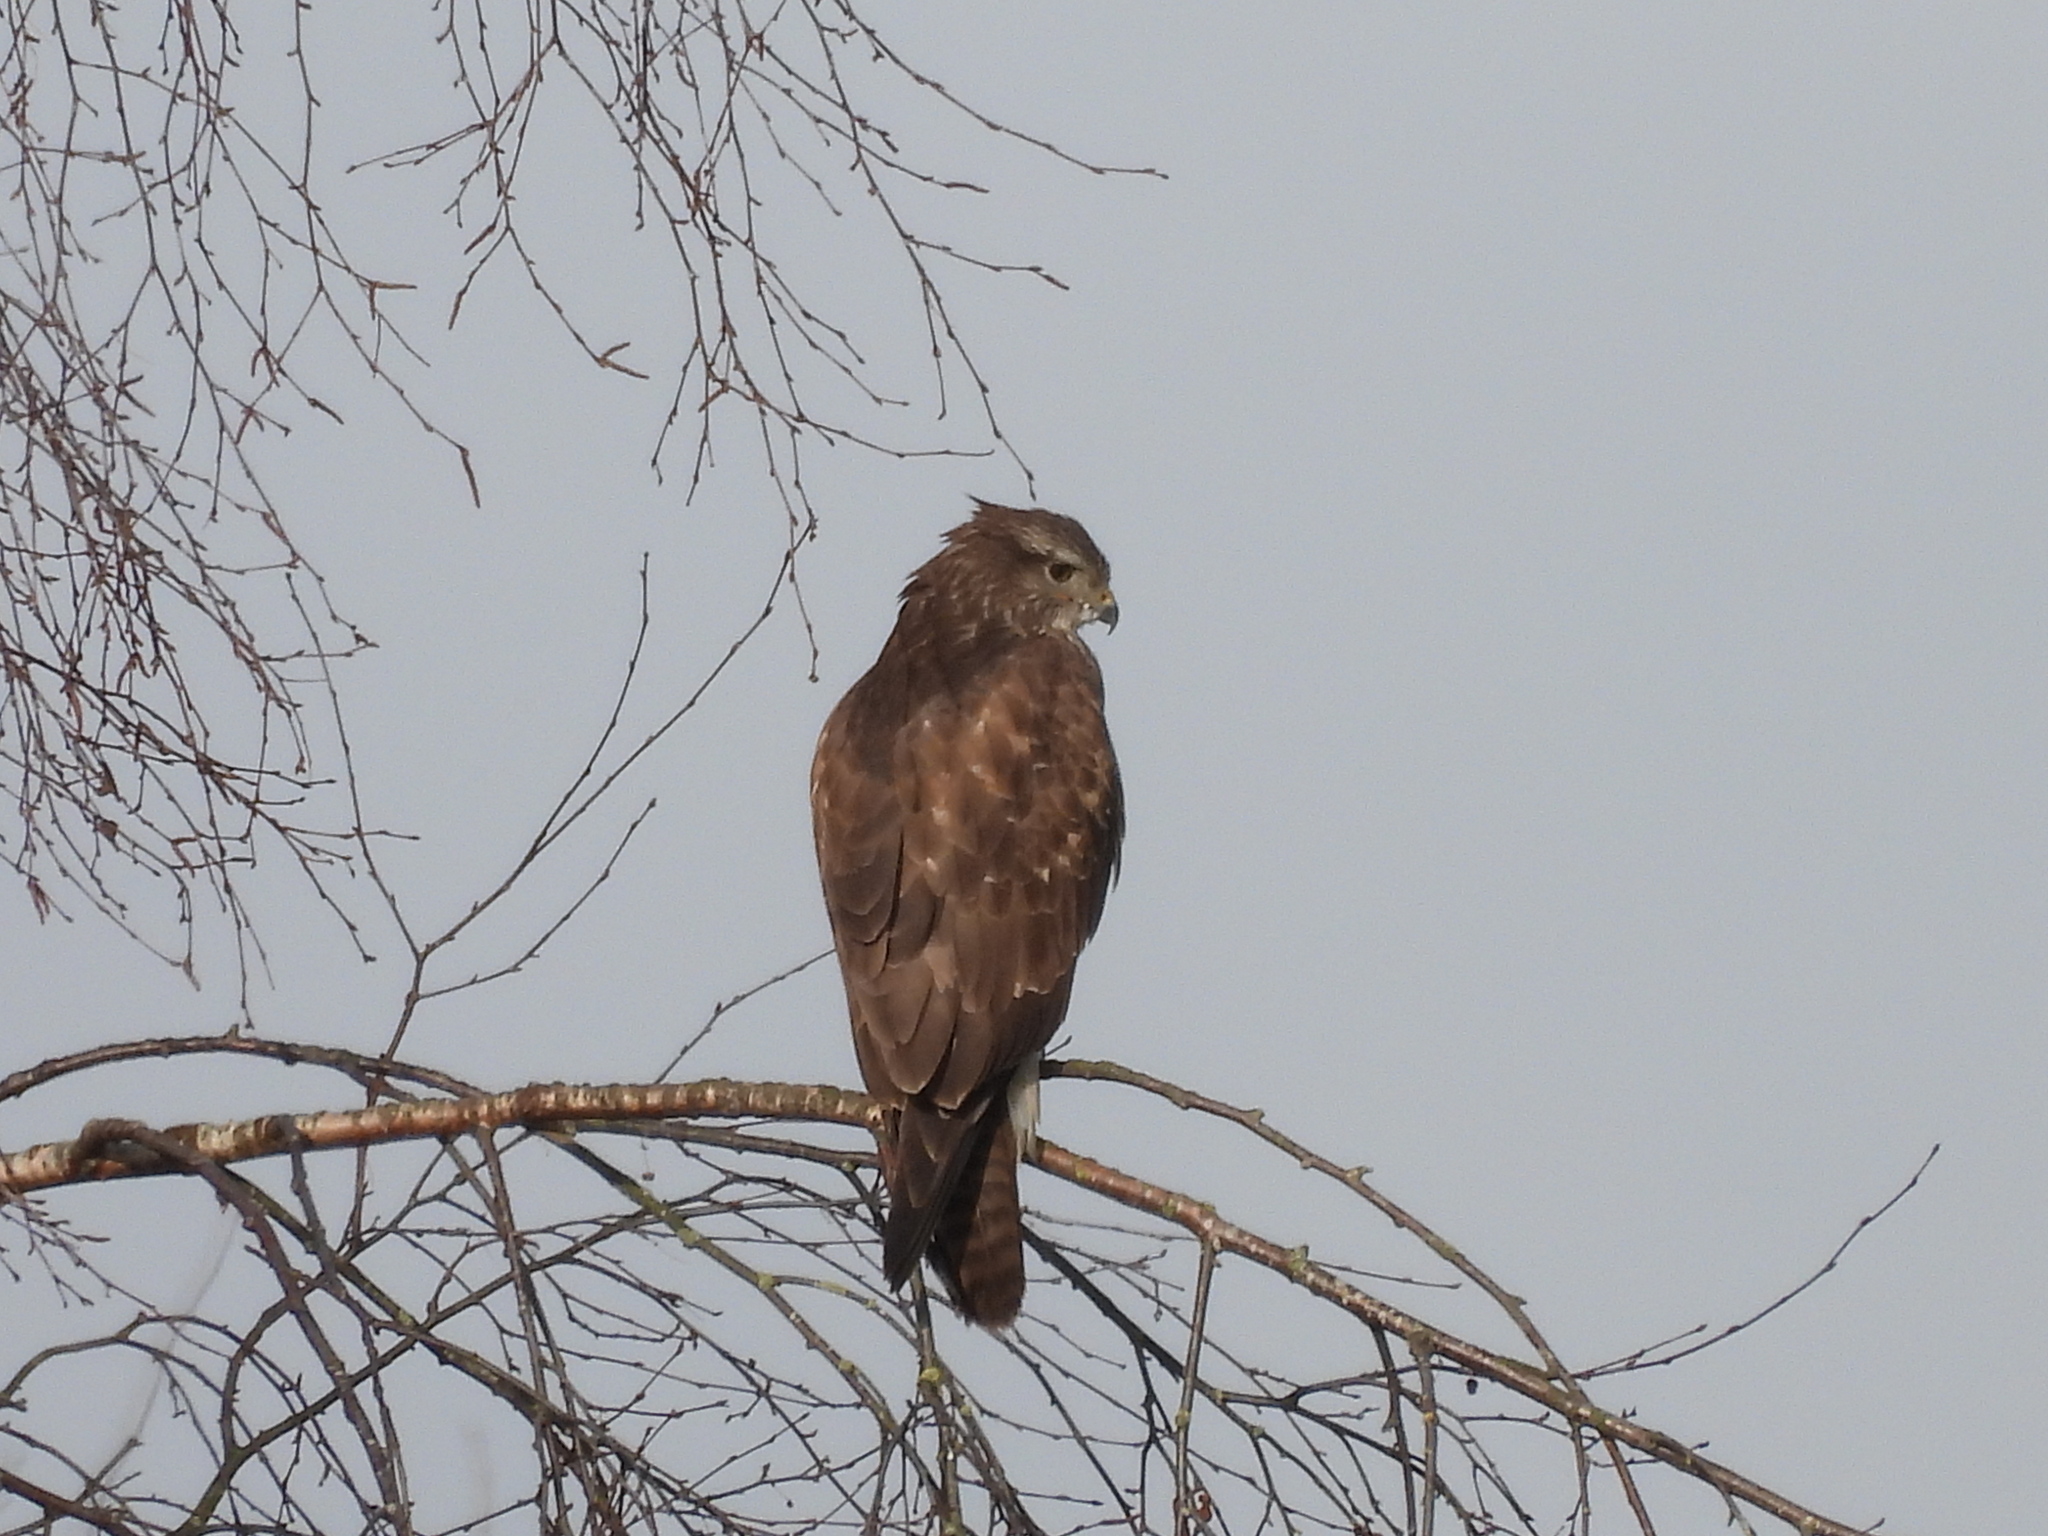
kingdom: Animalia
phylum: Chordata
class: Aves
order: Accipitriformes
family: Accipitridae
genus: Buteo
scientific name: Buteo buteo
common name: Common buzzard
